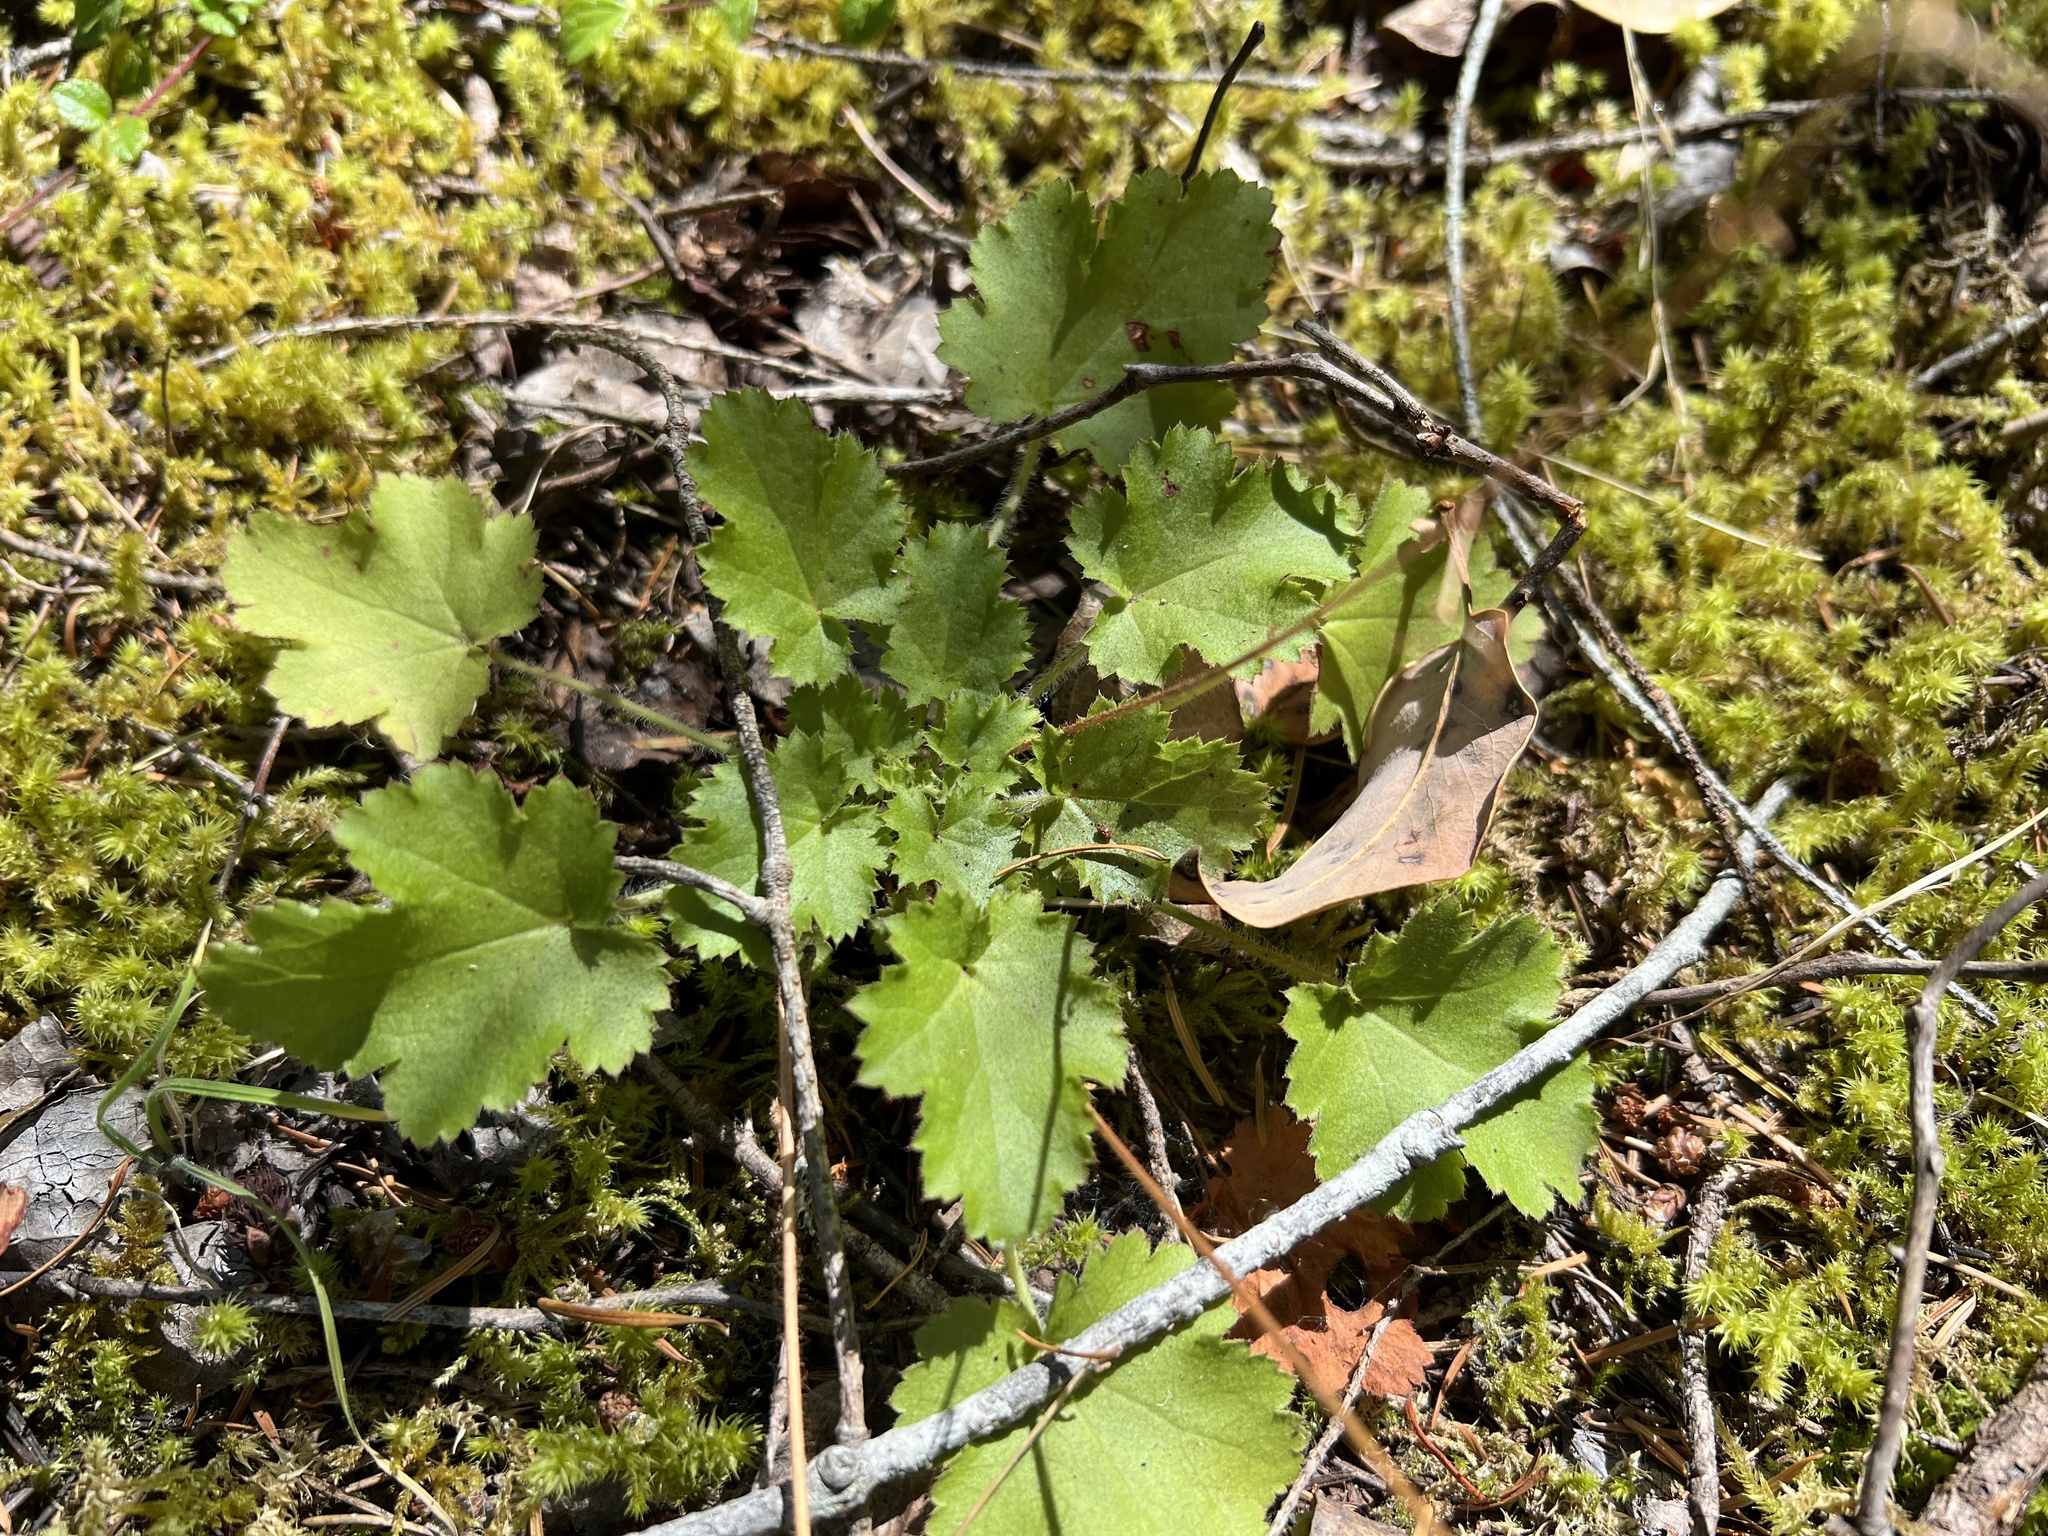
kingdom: Plantae
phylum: Tracheophyta
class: Magnoliopsida
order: Saxifragales
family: Saxifragaceae
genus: Heuchera
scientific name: Heuchera micrantha
